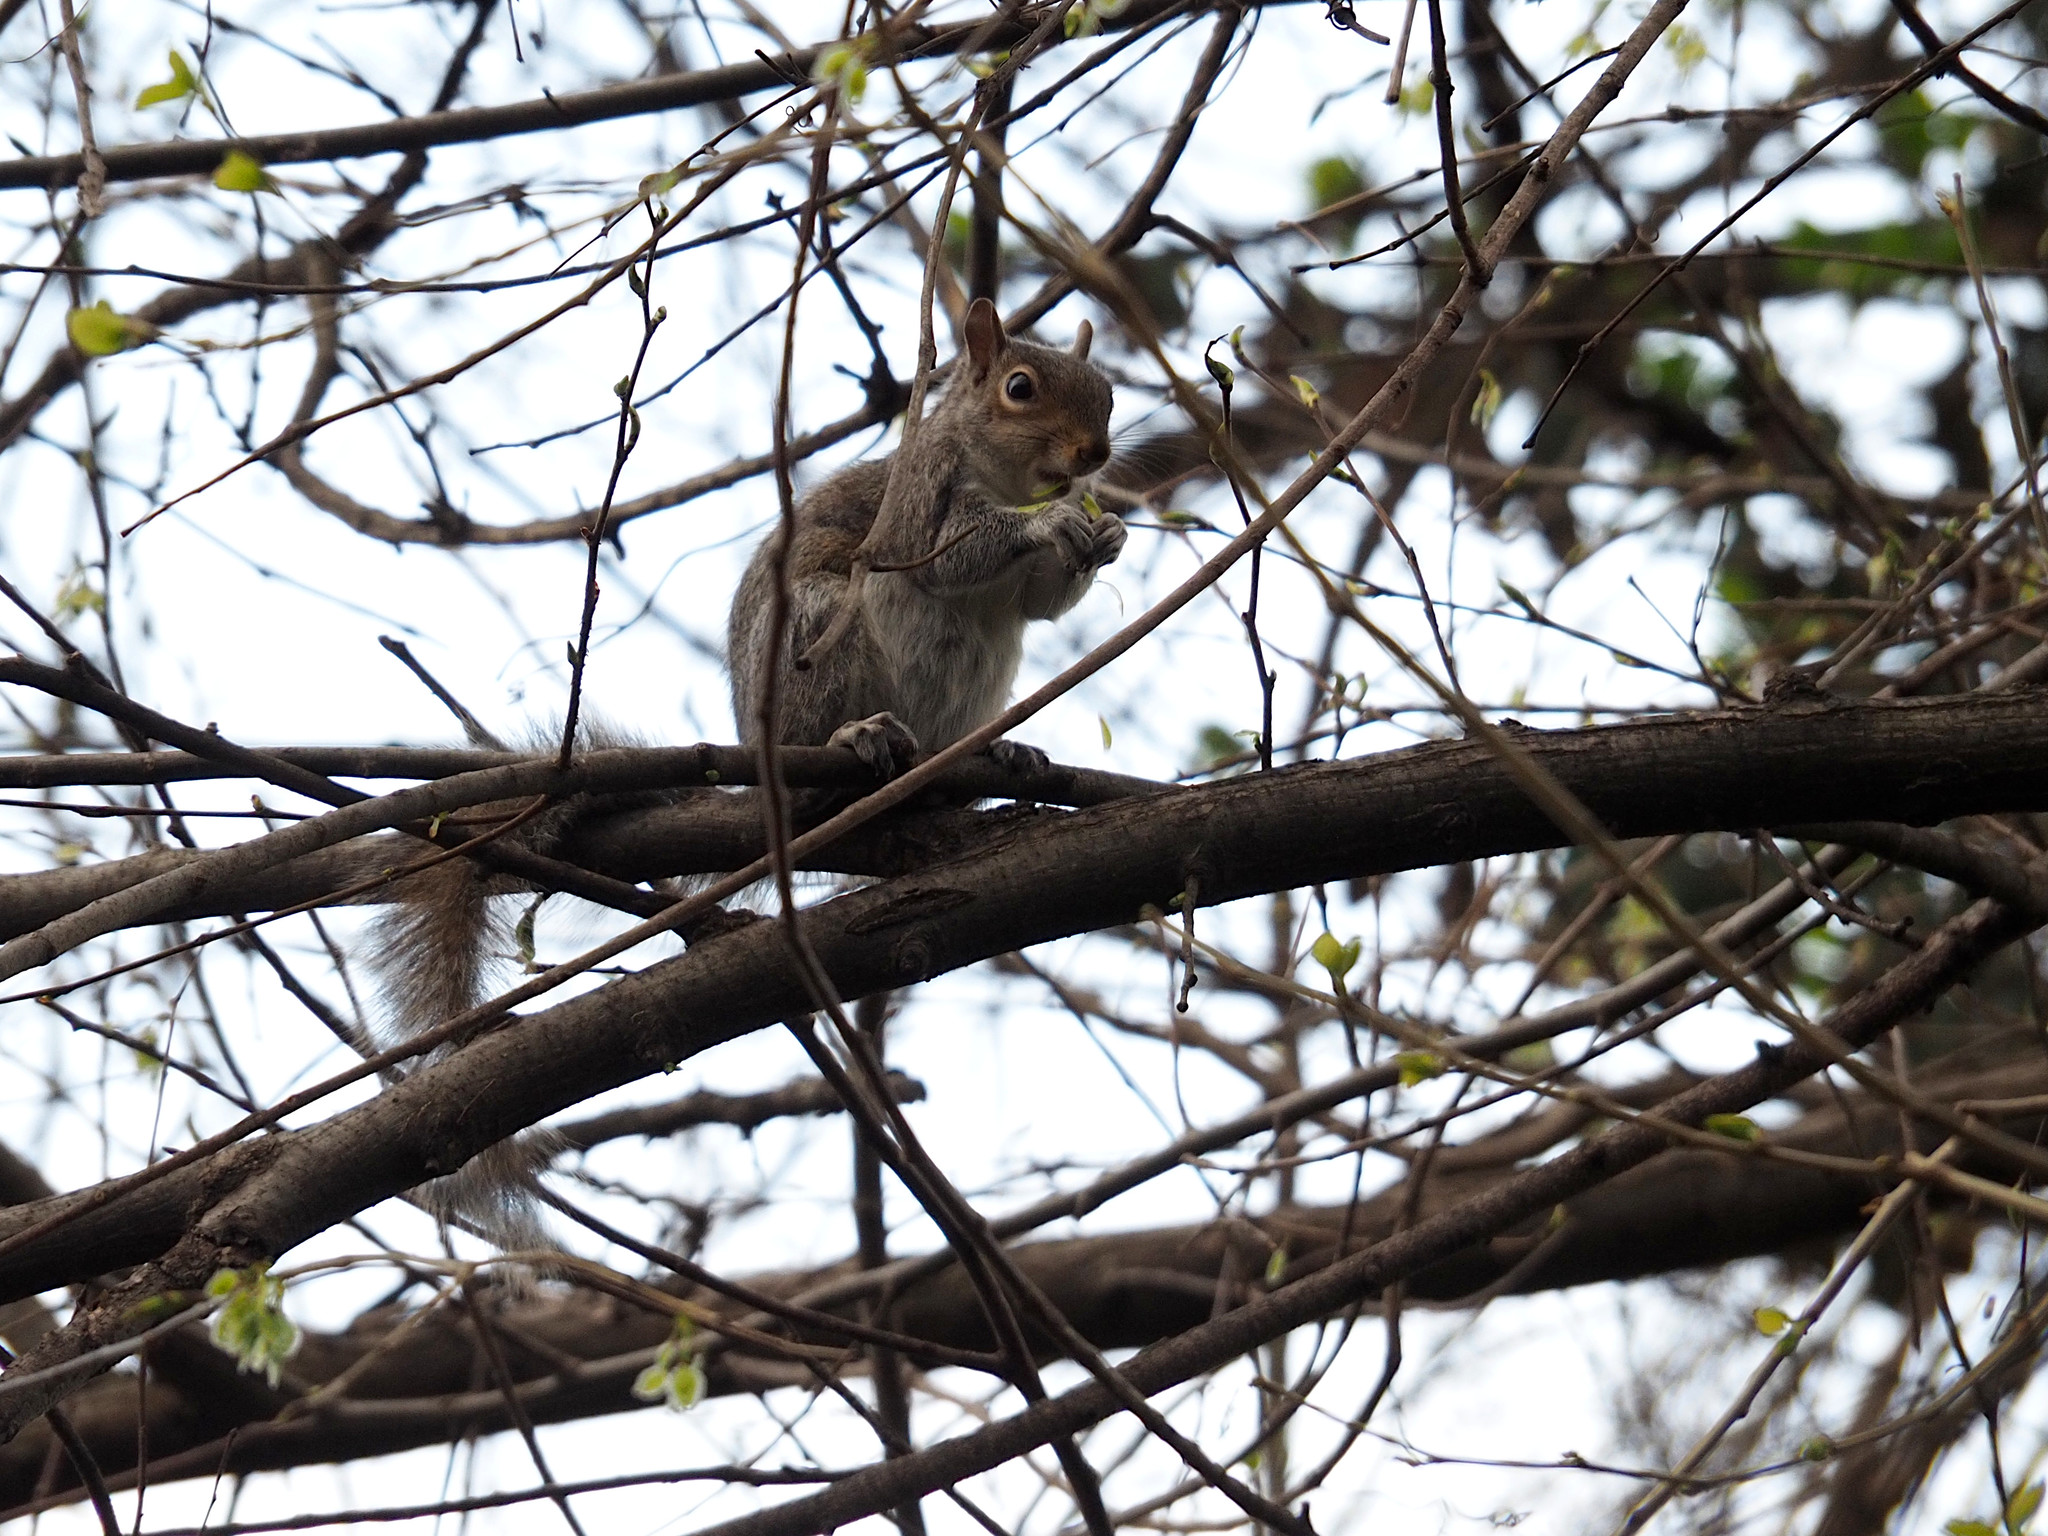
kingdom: Animalia
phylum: Chordata
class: Mammalia
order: Rodentia
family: Sciuridae
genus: Sciurus
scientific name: Sciurus carolinensis
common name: Eastern gray squirrel
